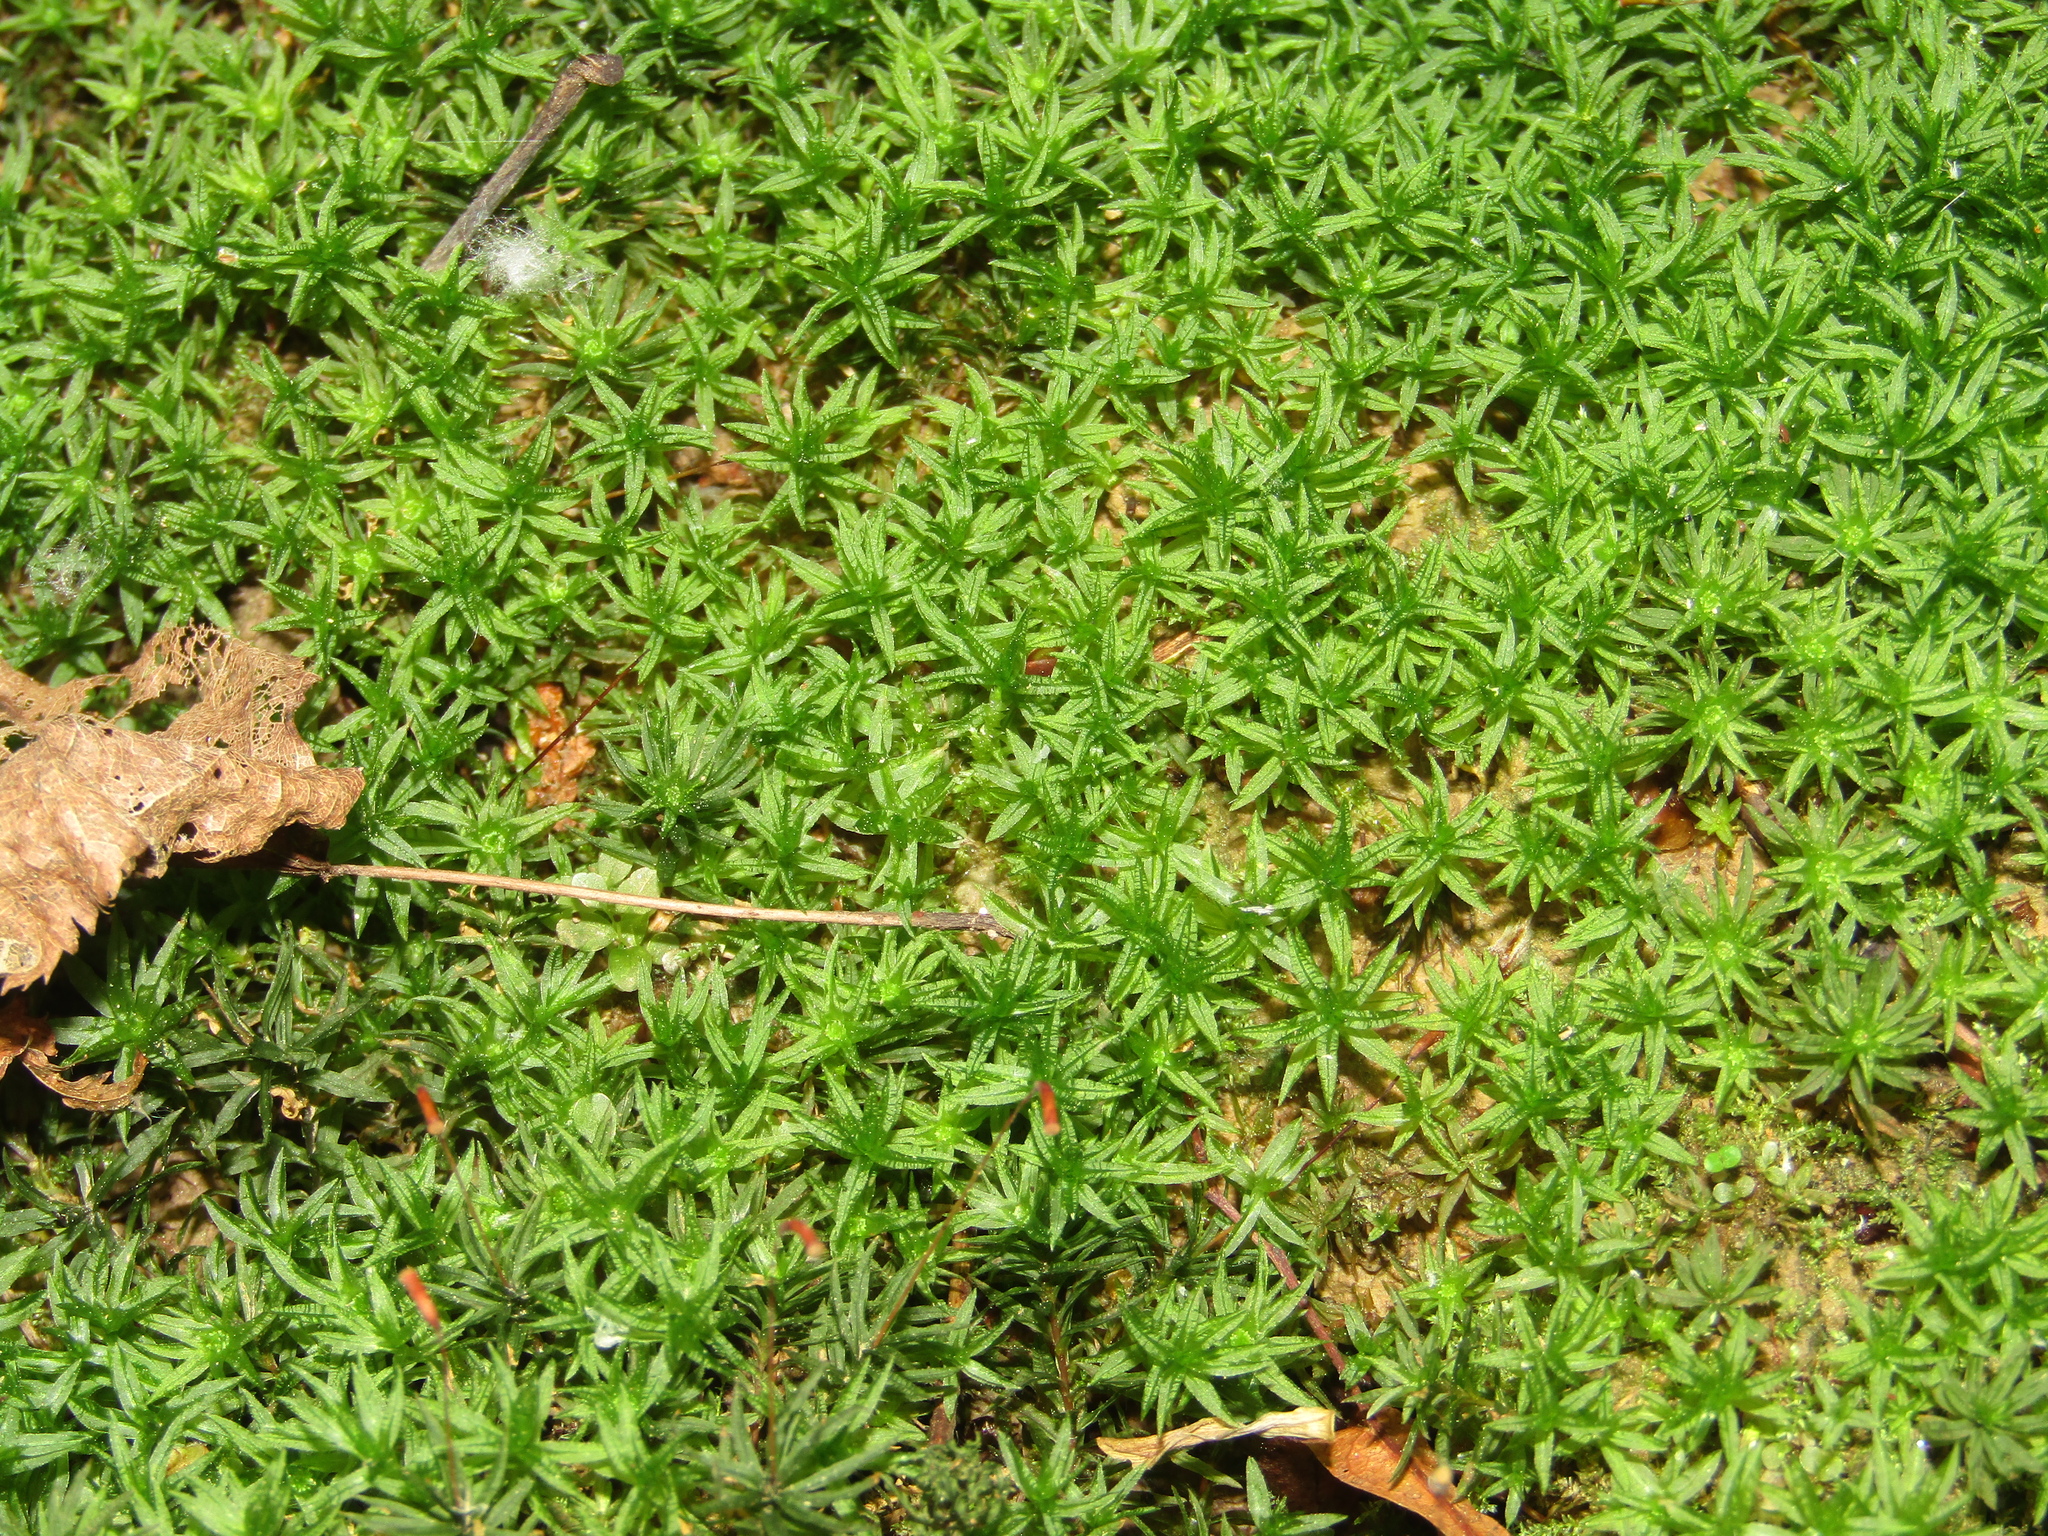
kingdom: Plantae
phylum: Bryophyta
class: Polytrichopsida
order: Polytrichales
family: Polytrichaceae
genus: Atrichum
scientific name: Atrichum undulatum
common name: Common smoothcap
